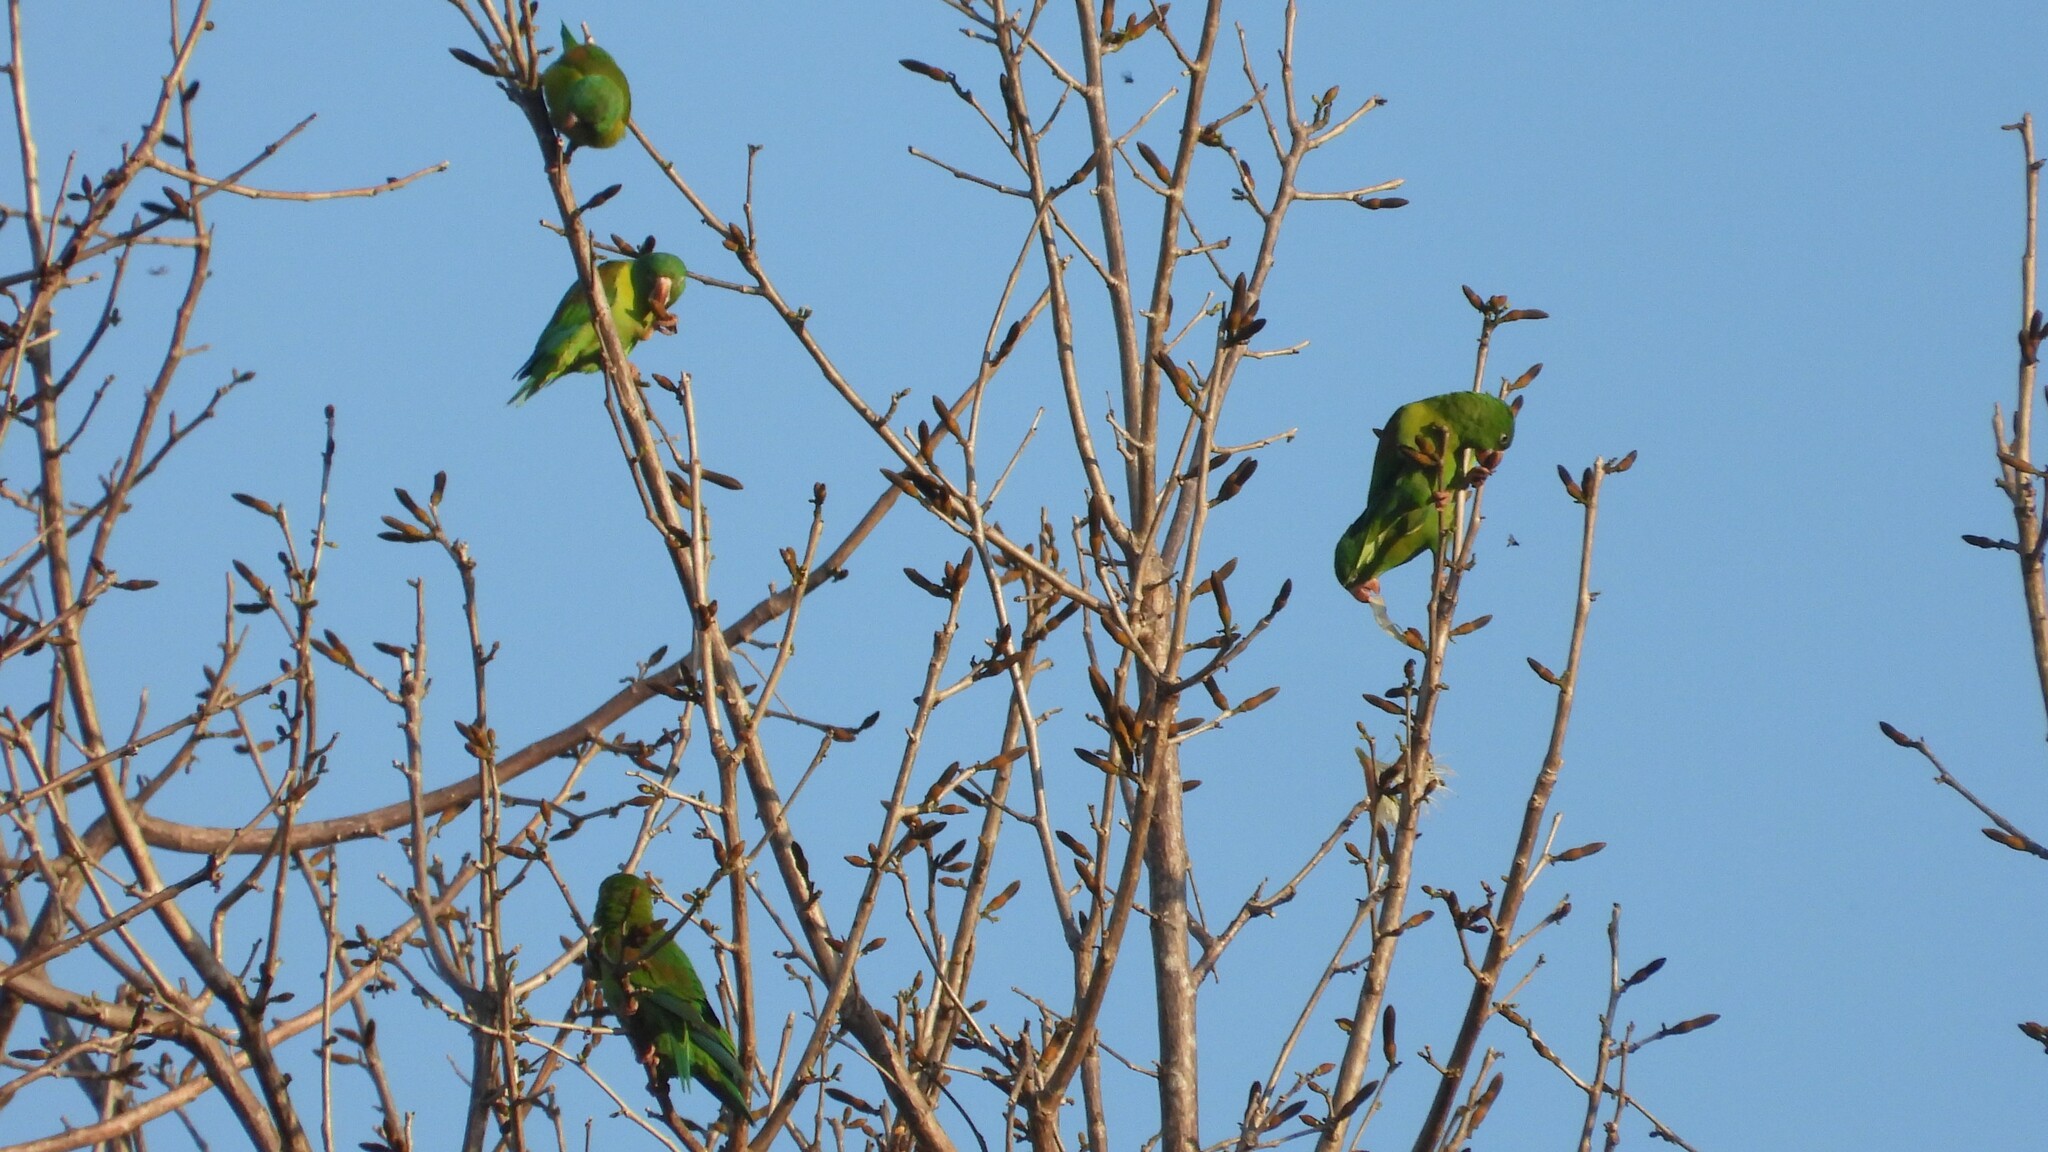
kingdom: Animalia
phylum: Chordata
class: Aves
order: Psittaciformes
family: Psittacidae
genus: Brotogeris
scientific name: Brotogeris jugularis
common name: Orange-chinned parakeet
